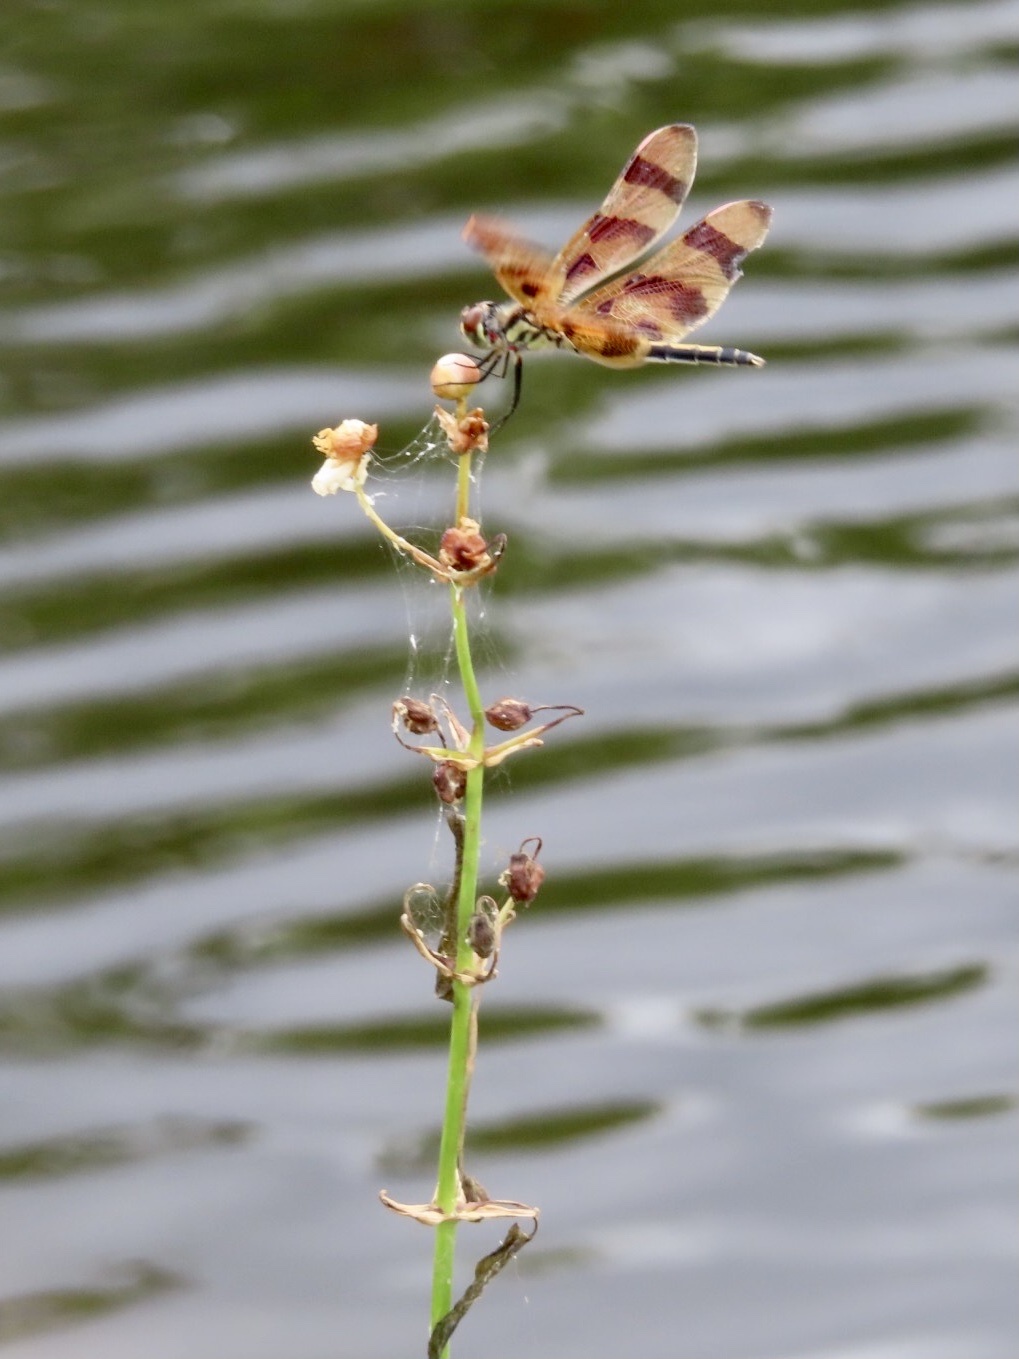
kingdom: Animalia
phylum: Arthropoda
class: Insecta
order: Odonata
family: Libellulidae
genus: Celithemis
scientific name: Celithemis eponina
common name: Halloween pennant
